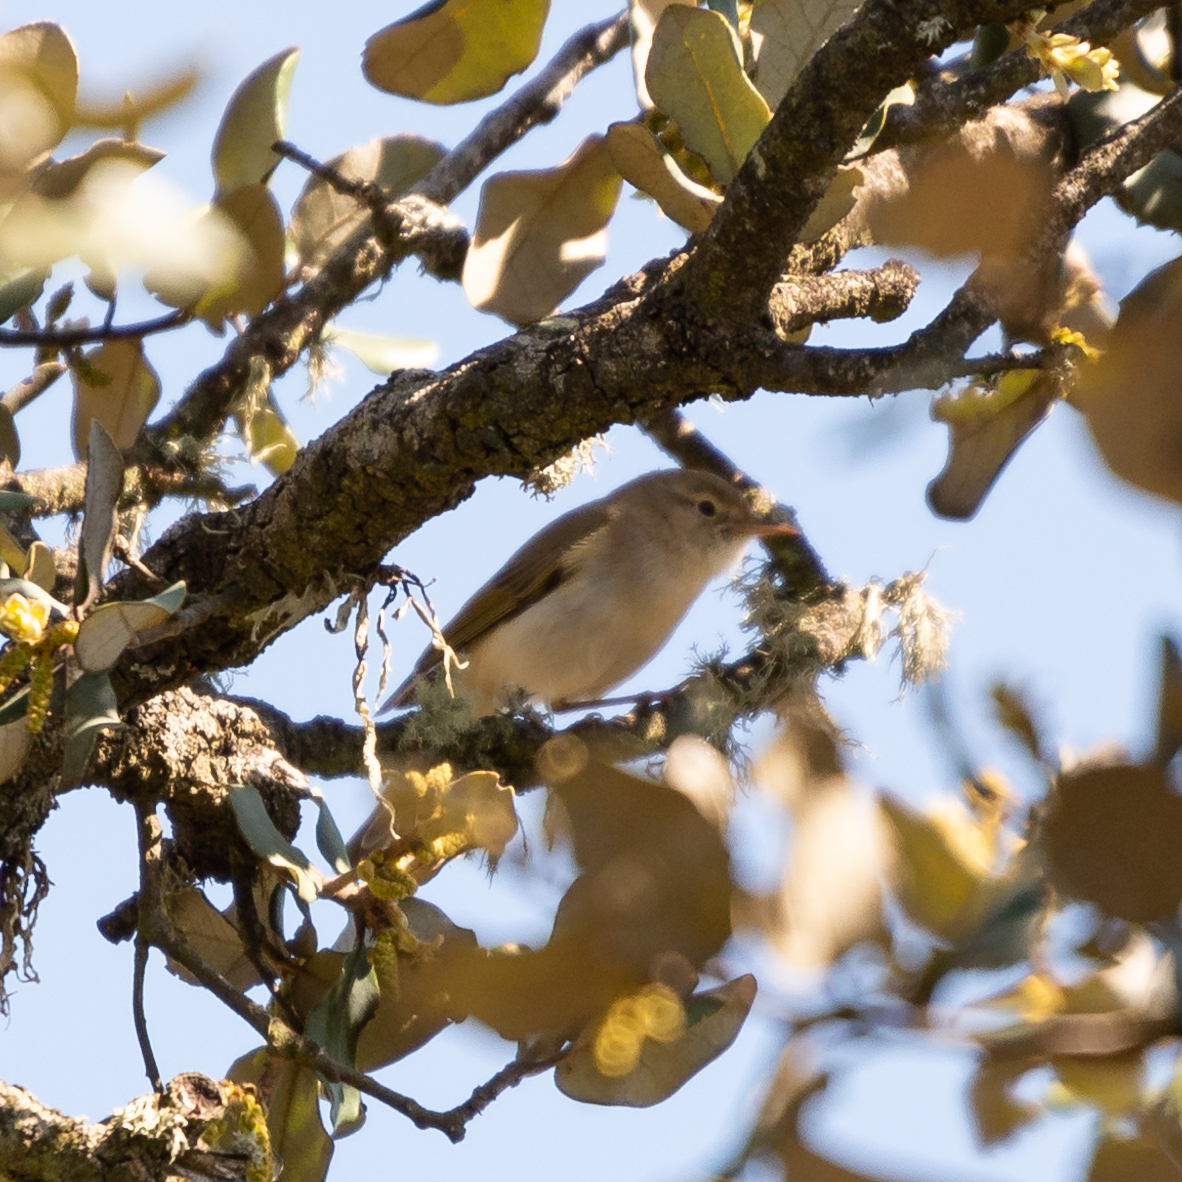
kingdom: Animalia
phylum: Chordata
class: Aves
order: Passeriformes
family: Phylloscopidae
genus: Phylloscopus
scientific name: Phylloscopus bonelli
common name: Western bonelli's warbler
